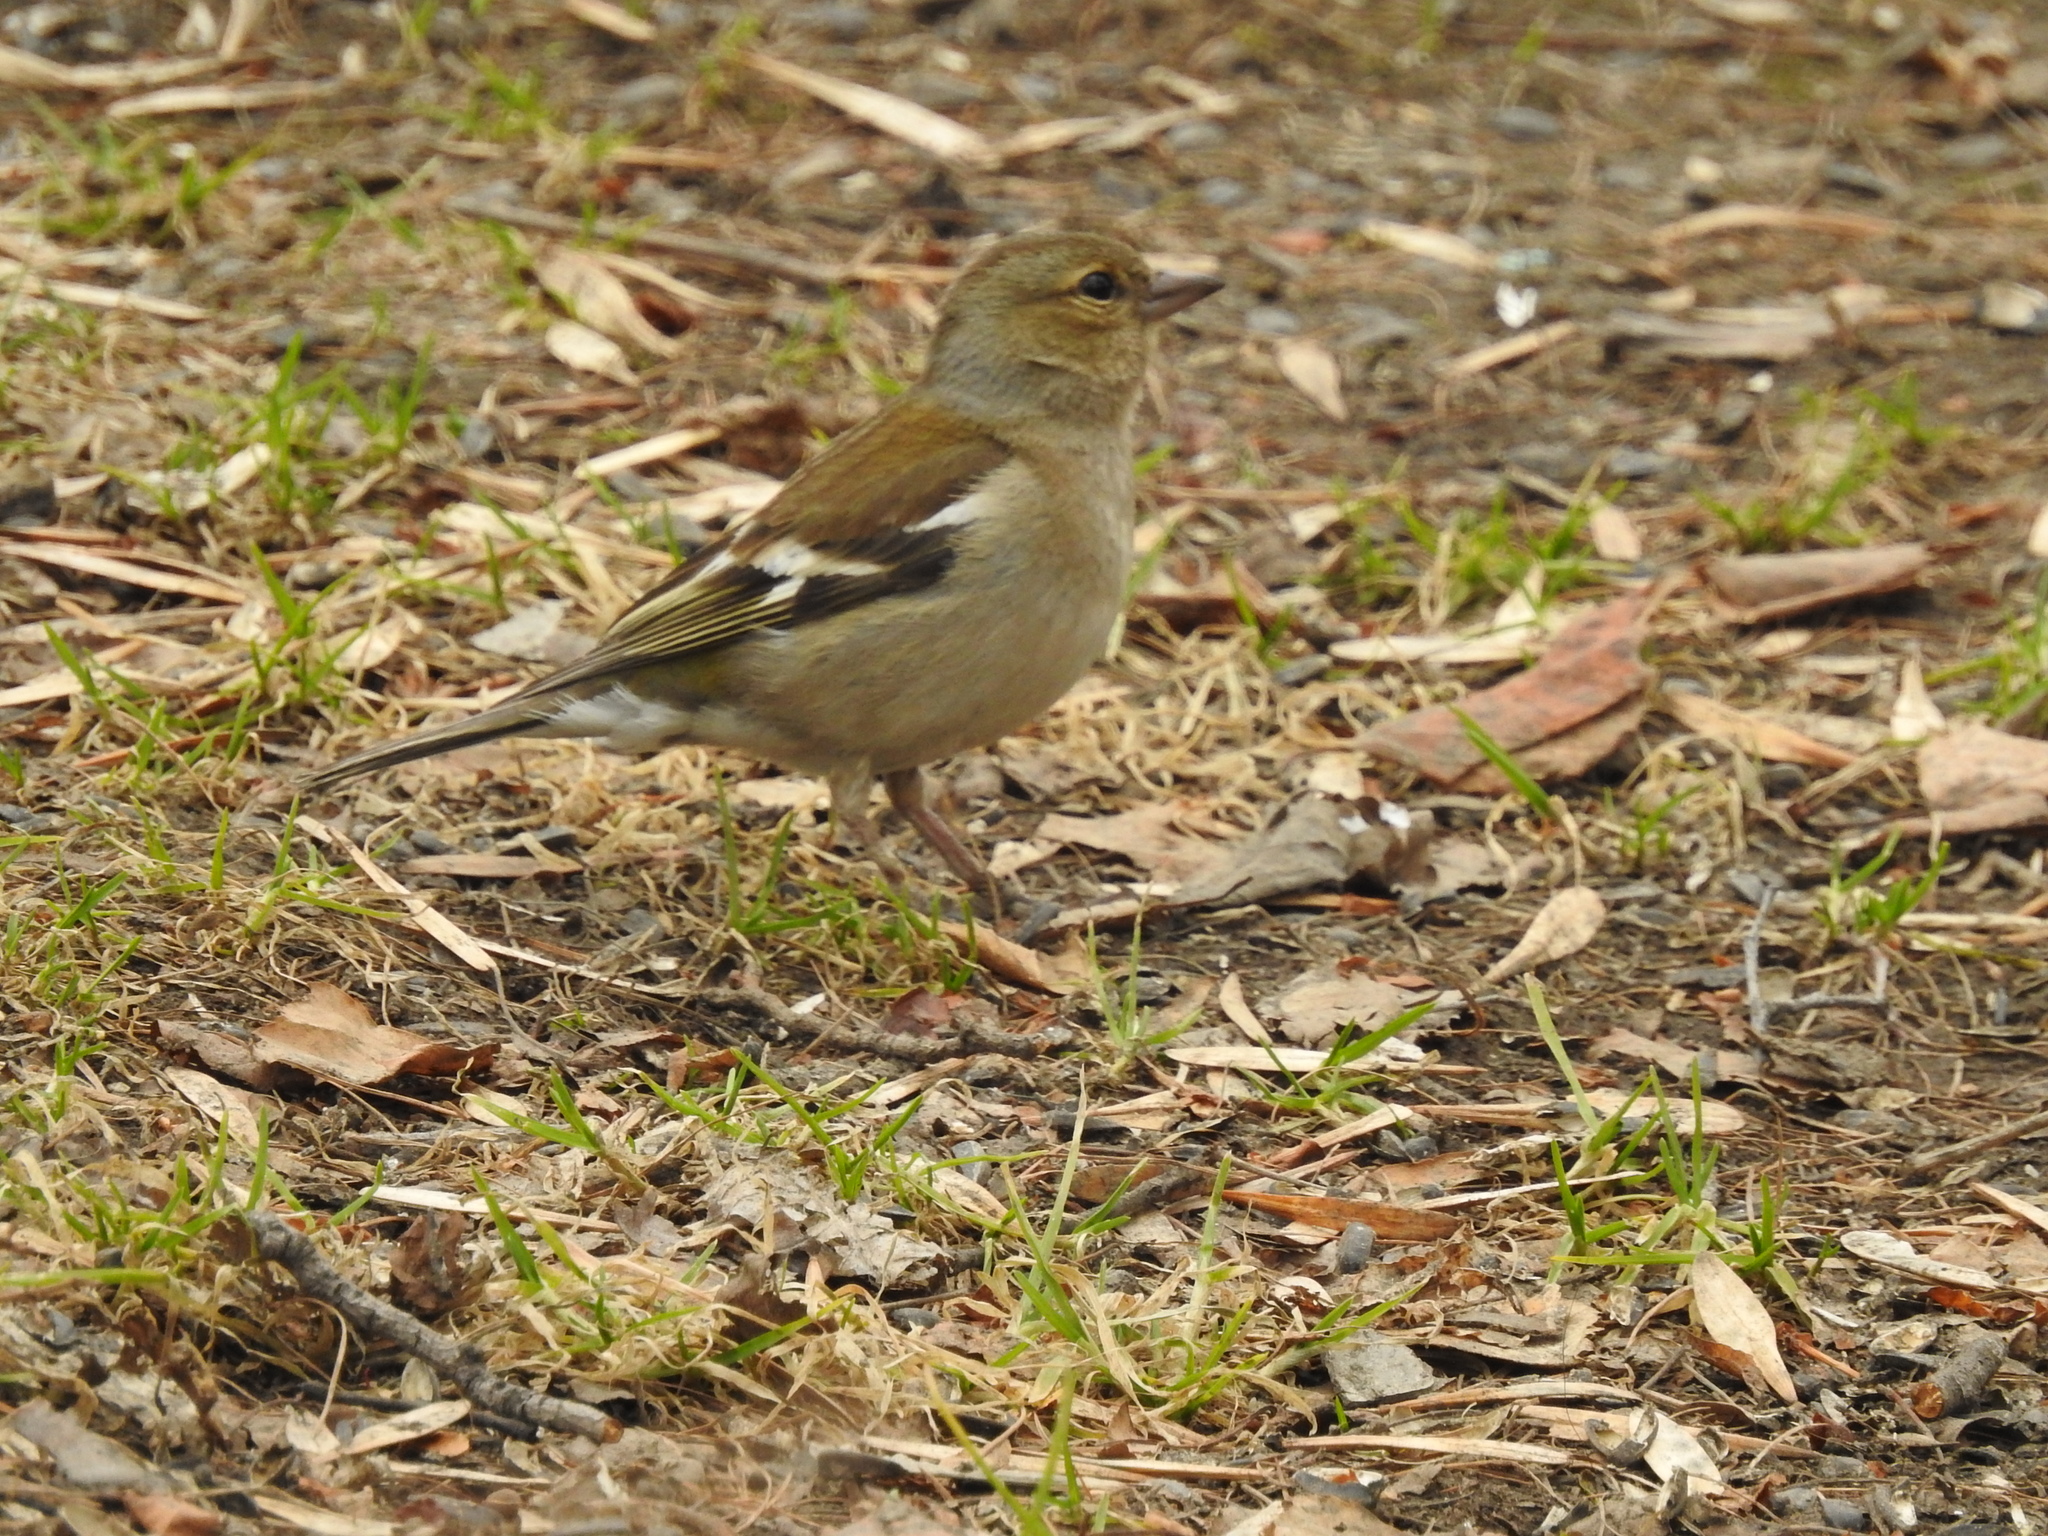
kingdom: Animalia
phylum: Chordata
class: Aves
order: Passeriformes
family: Fringillidae
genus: Fringilla
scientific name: Fringilla coelebs
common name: Common chaffinch
